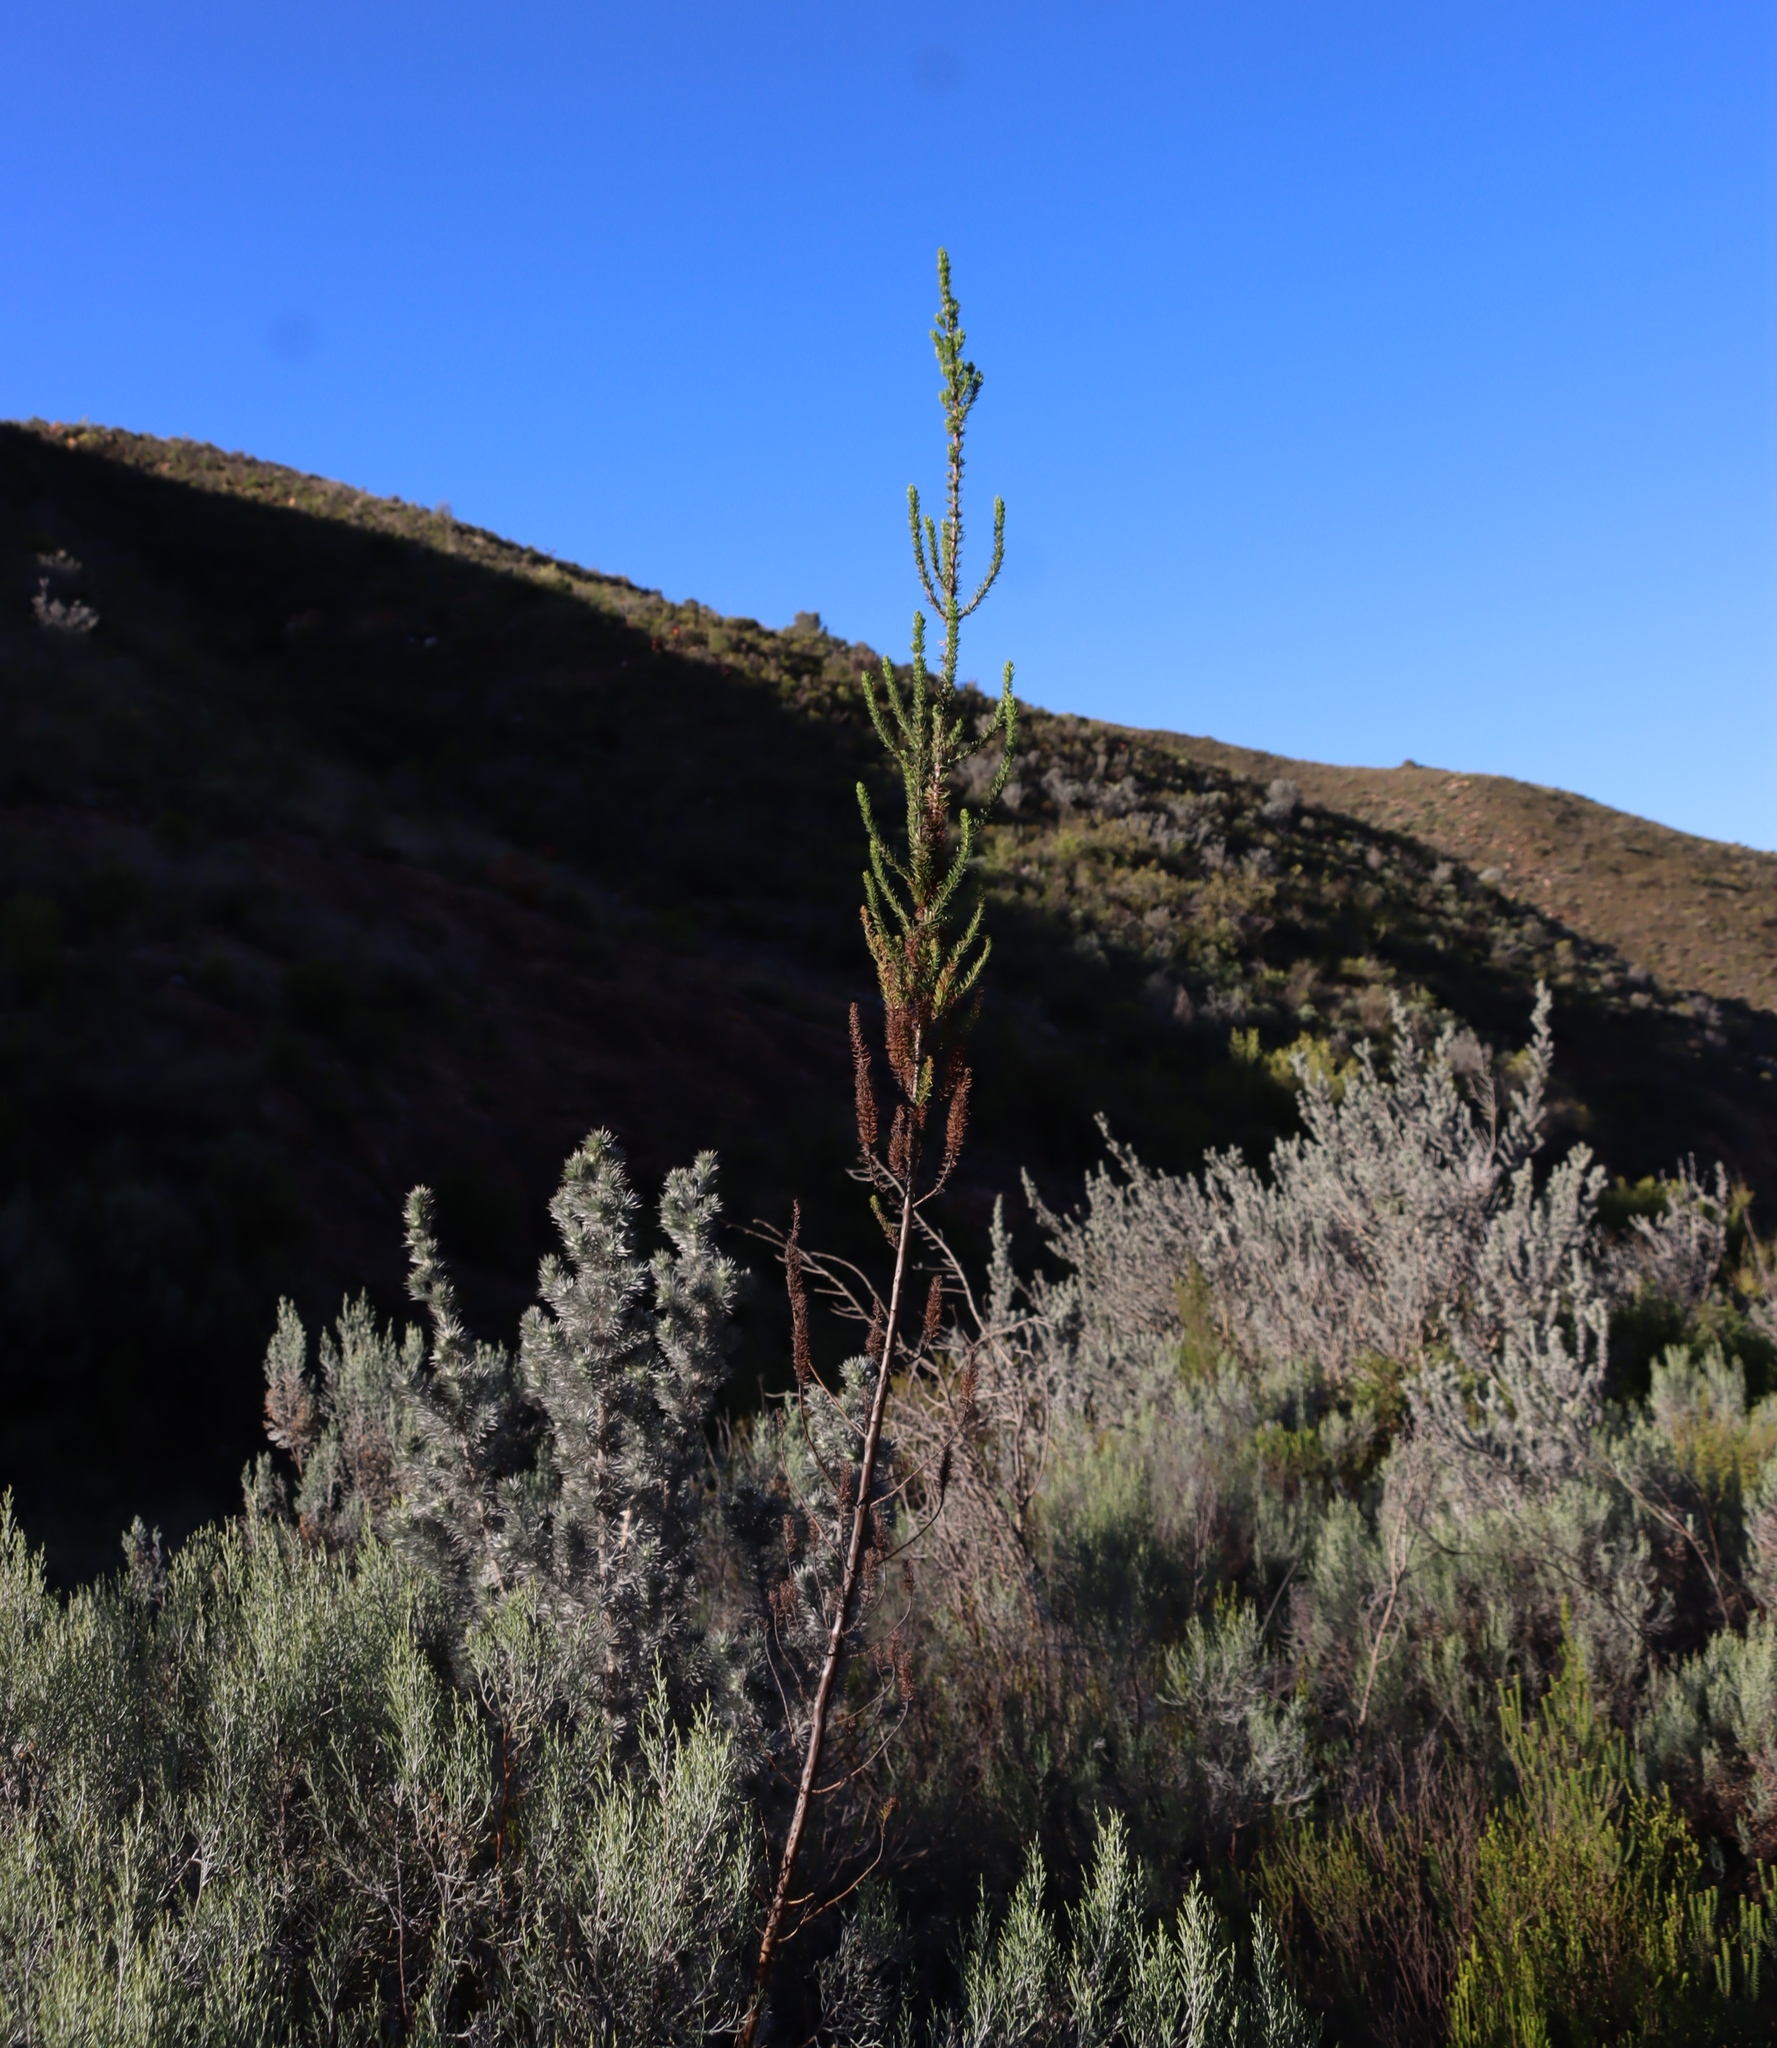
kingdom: Plantae
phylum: Tracheophyta
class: Magnoliopsida
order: Gentianales
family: Rubiaceae
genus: Anthospermum
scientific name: Anthospermum aethiopicum
